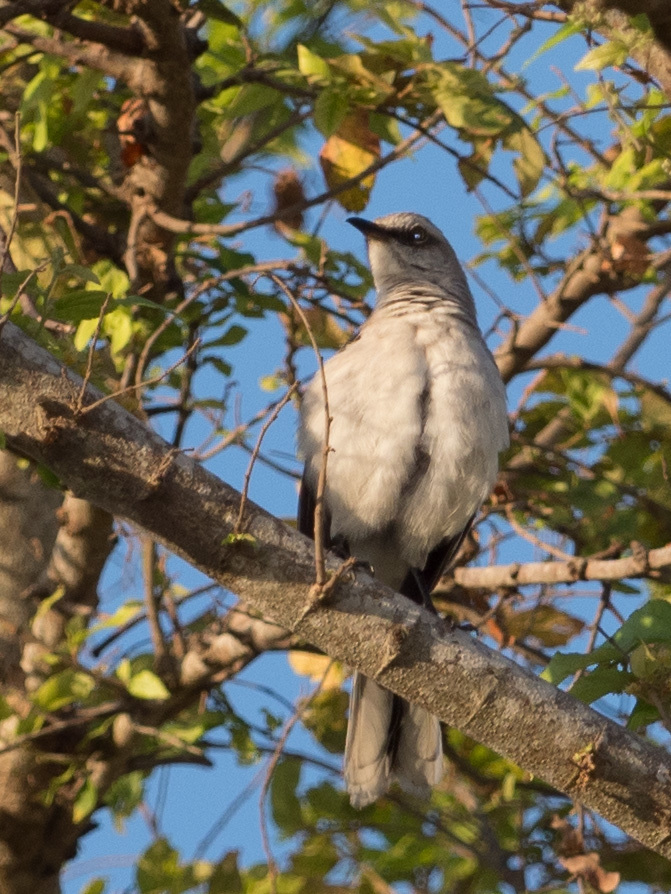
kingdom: Animalia
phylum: Chordata
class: Aves
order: Passeriformes
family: Mimidae
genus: Mimus
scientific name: Mimus gilvus
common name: Tropical mockingbird
